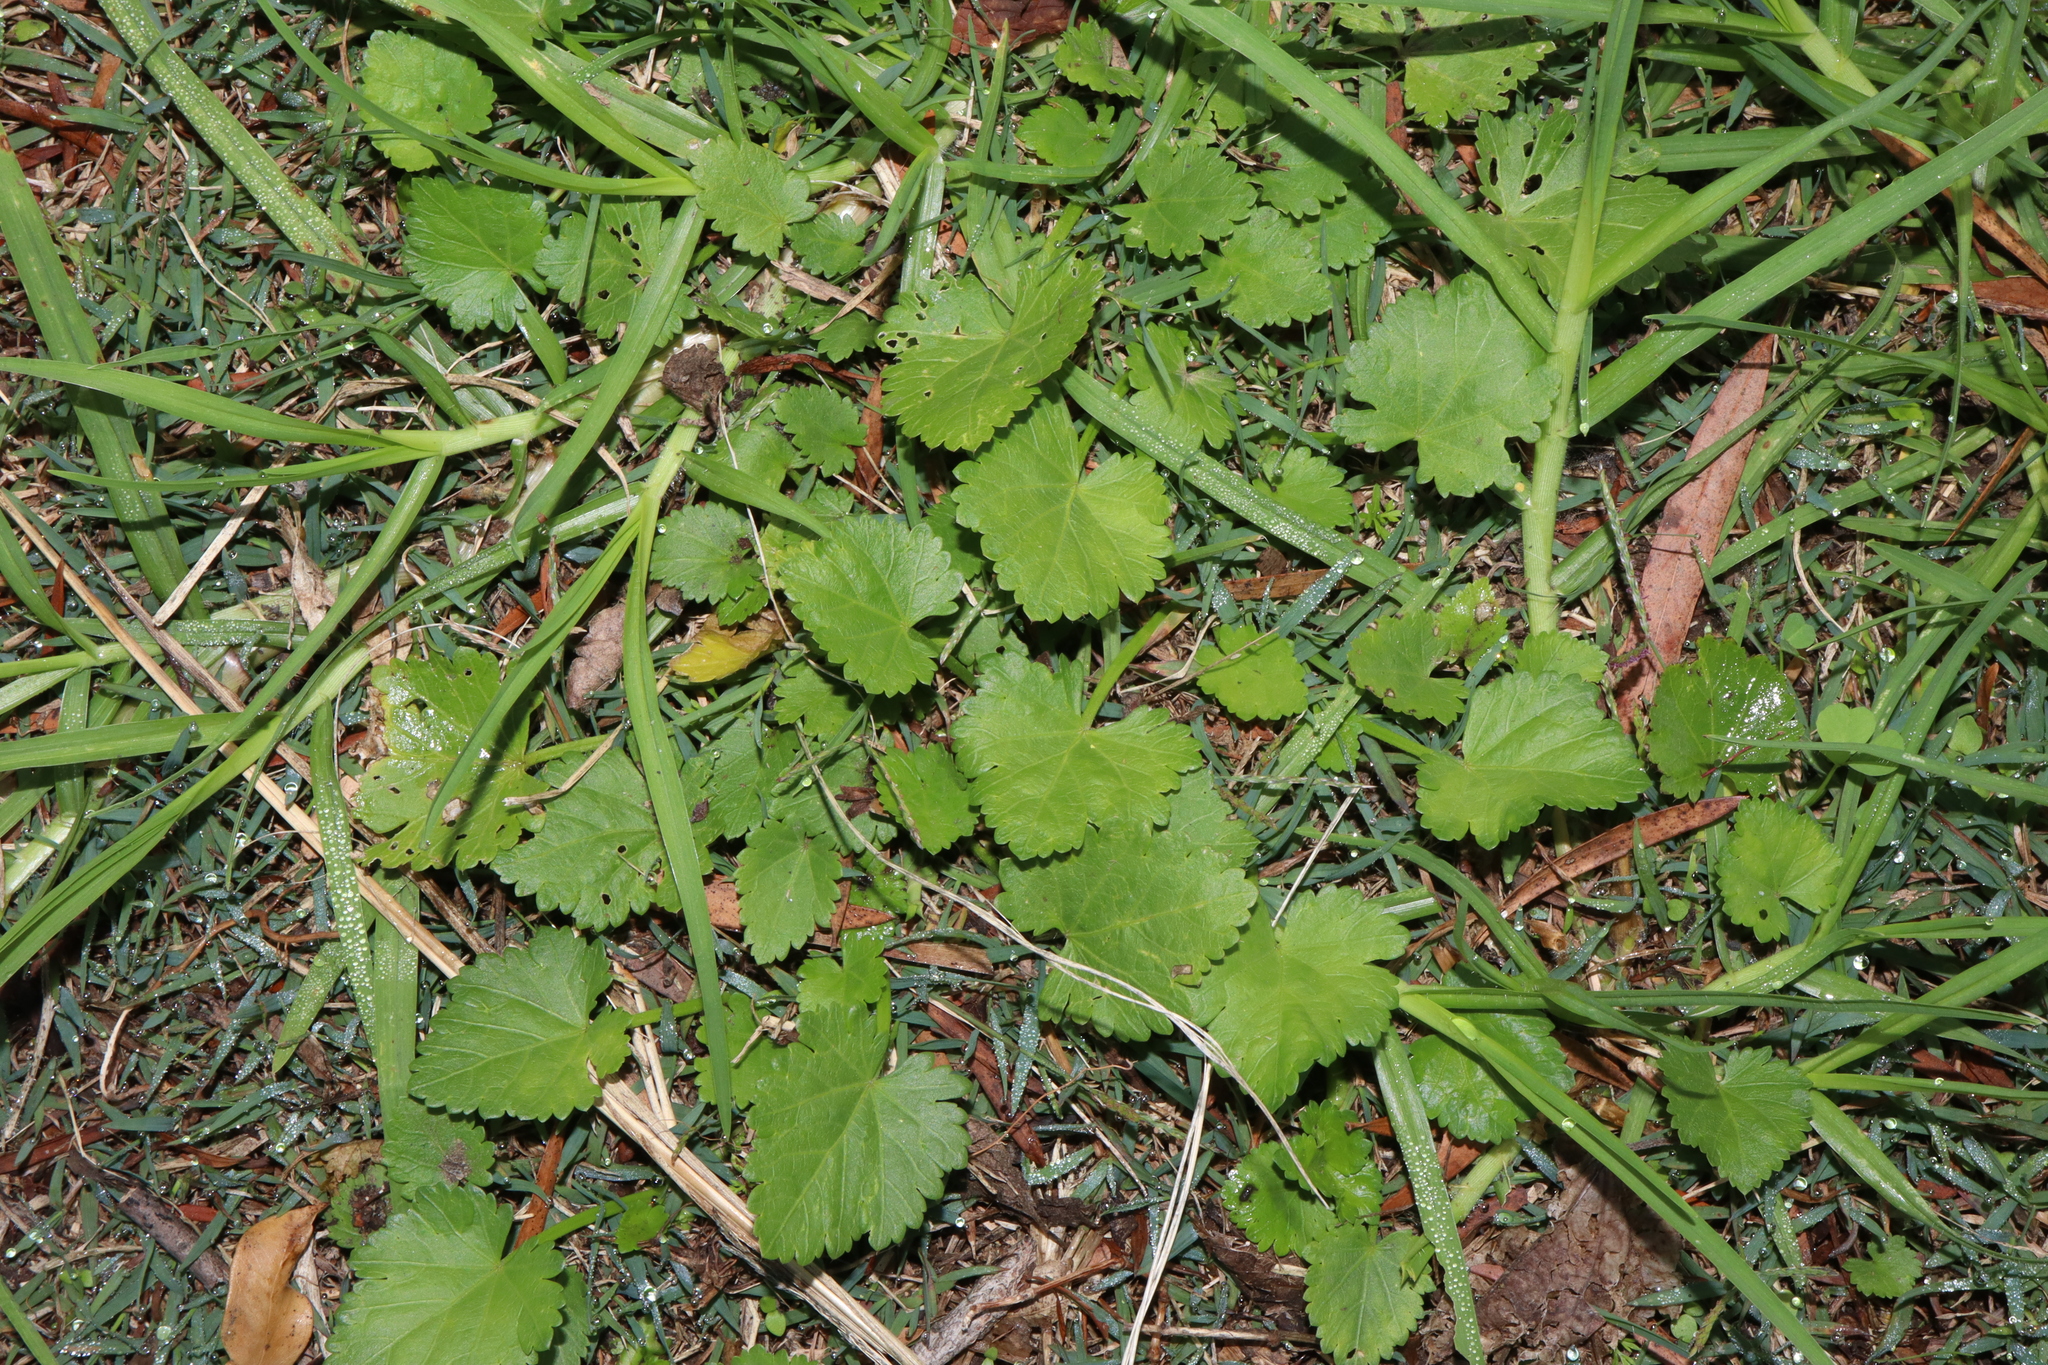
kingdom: Plantae
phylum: Tracheophyta
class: Magnoliopsida
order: Malvales
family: Malvaceae
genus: Modiola
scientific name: Modiola caroliniana
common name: Carolina bristlemallow
